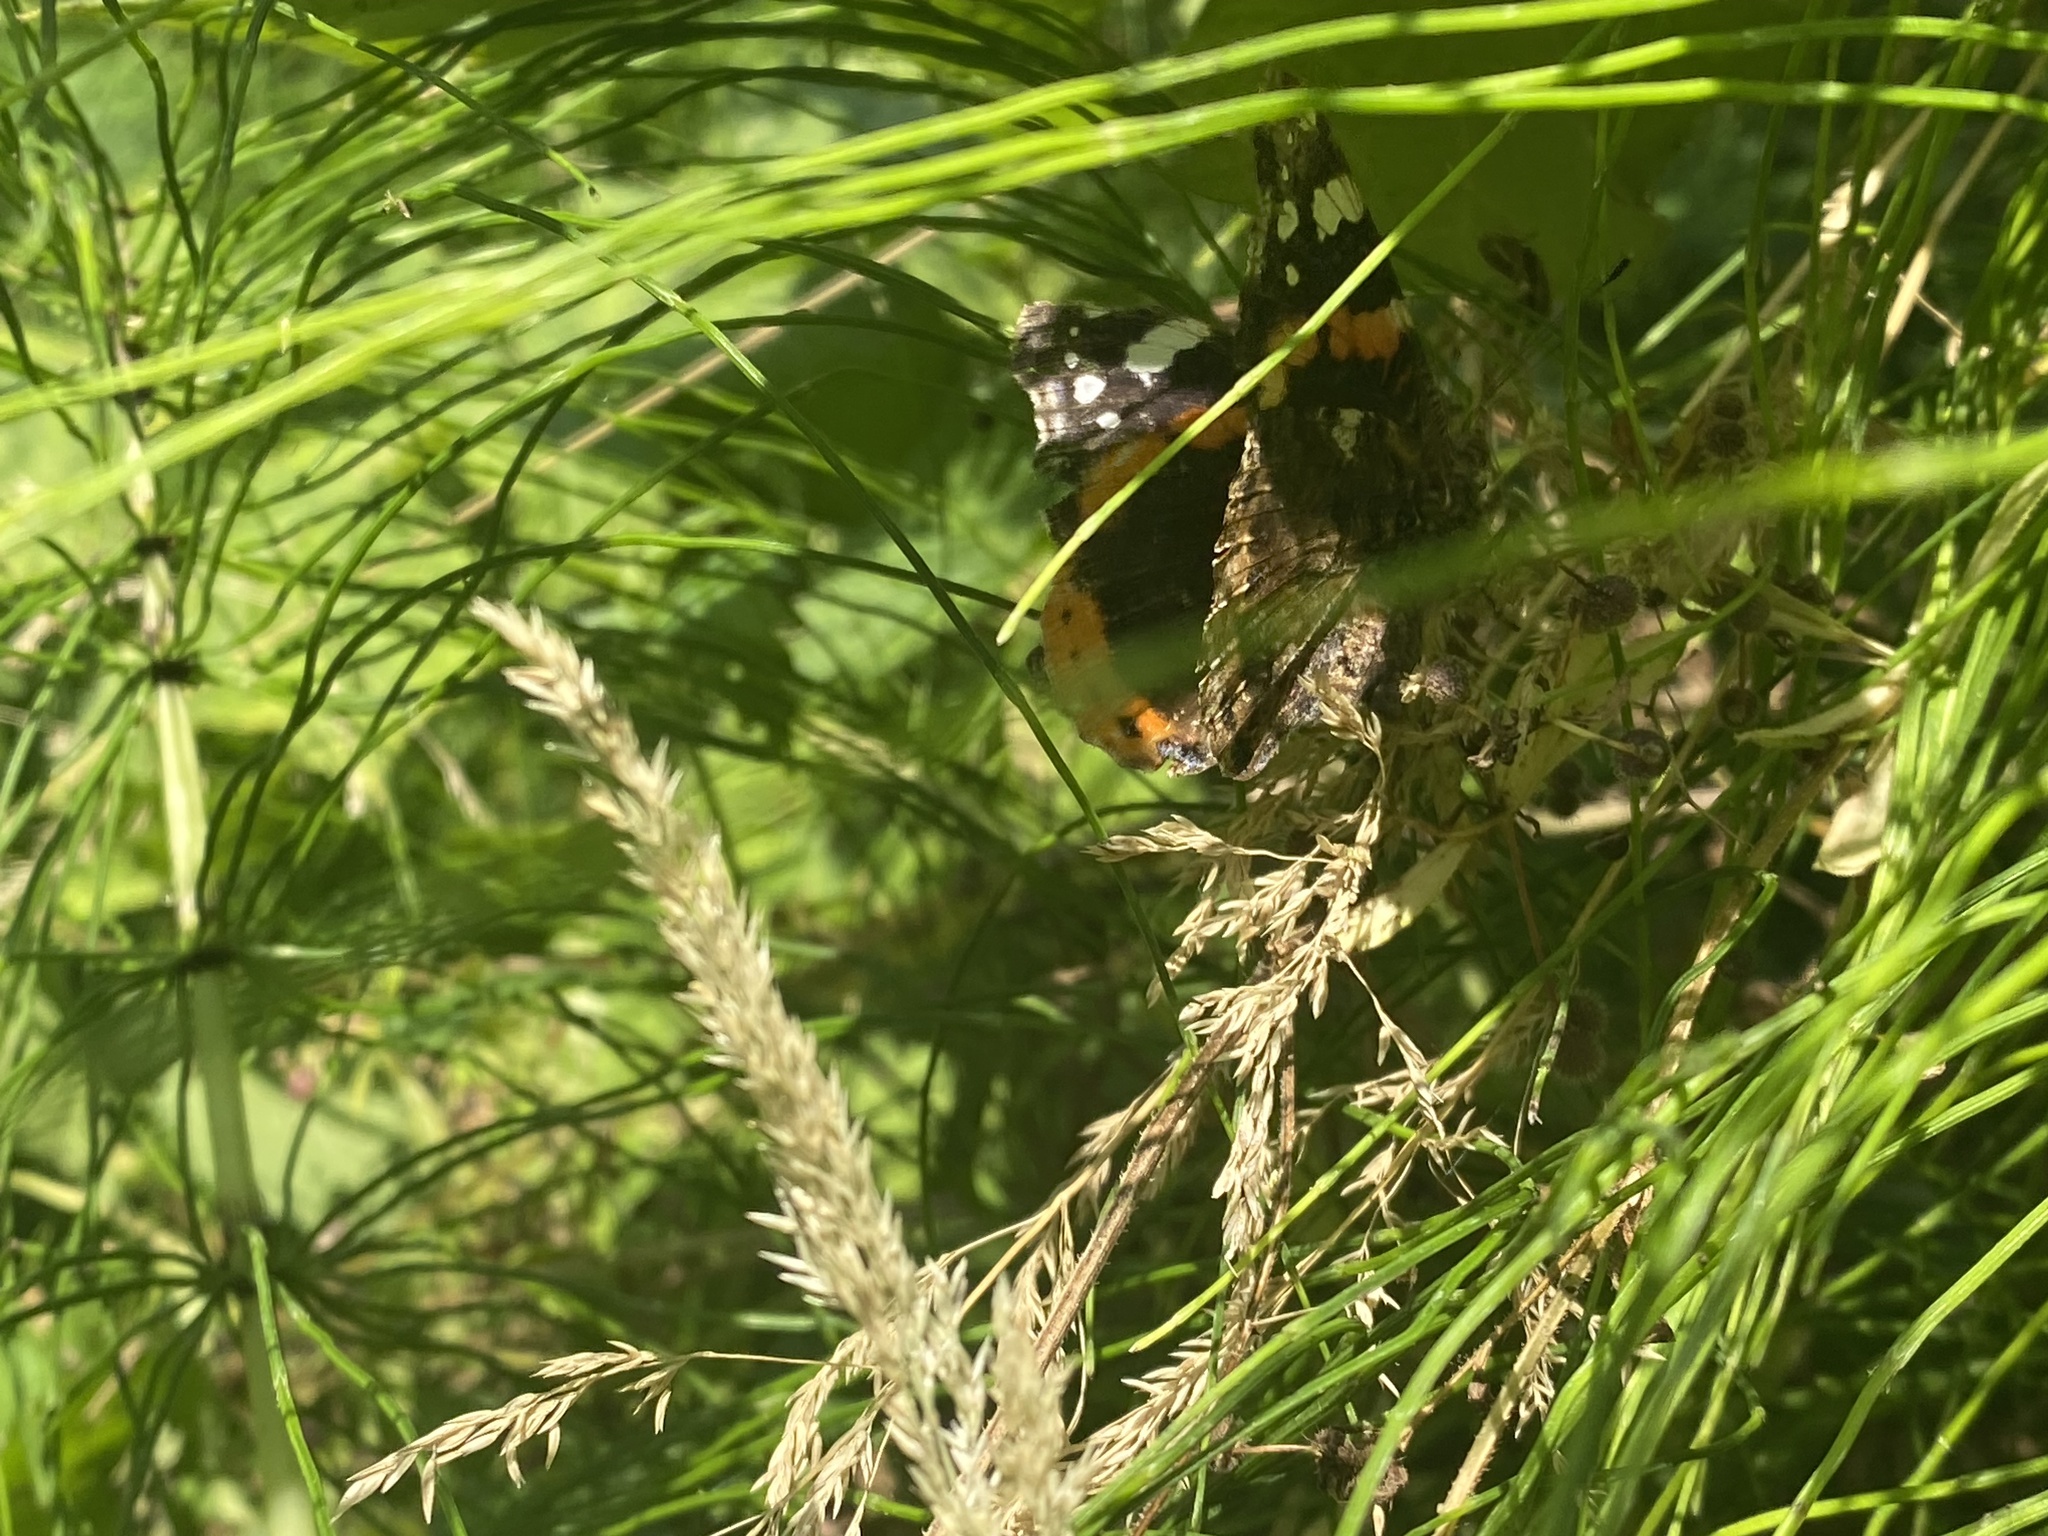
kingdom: Animalia
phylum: Arthropoda
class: Insecta
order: Lepidoptera
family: Nymphalidae
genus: Vanessa
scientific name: Vanessa atalanta
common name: Red admiral
